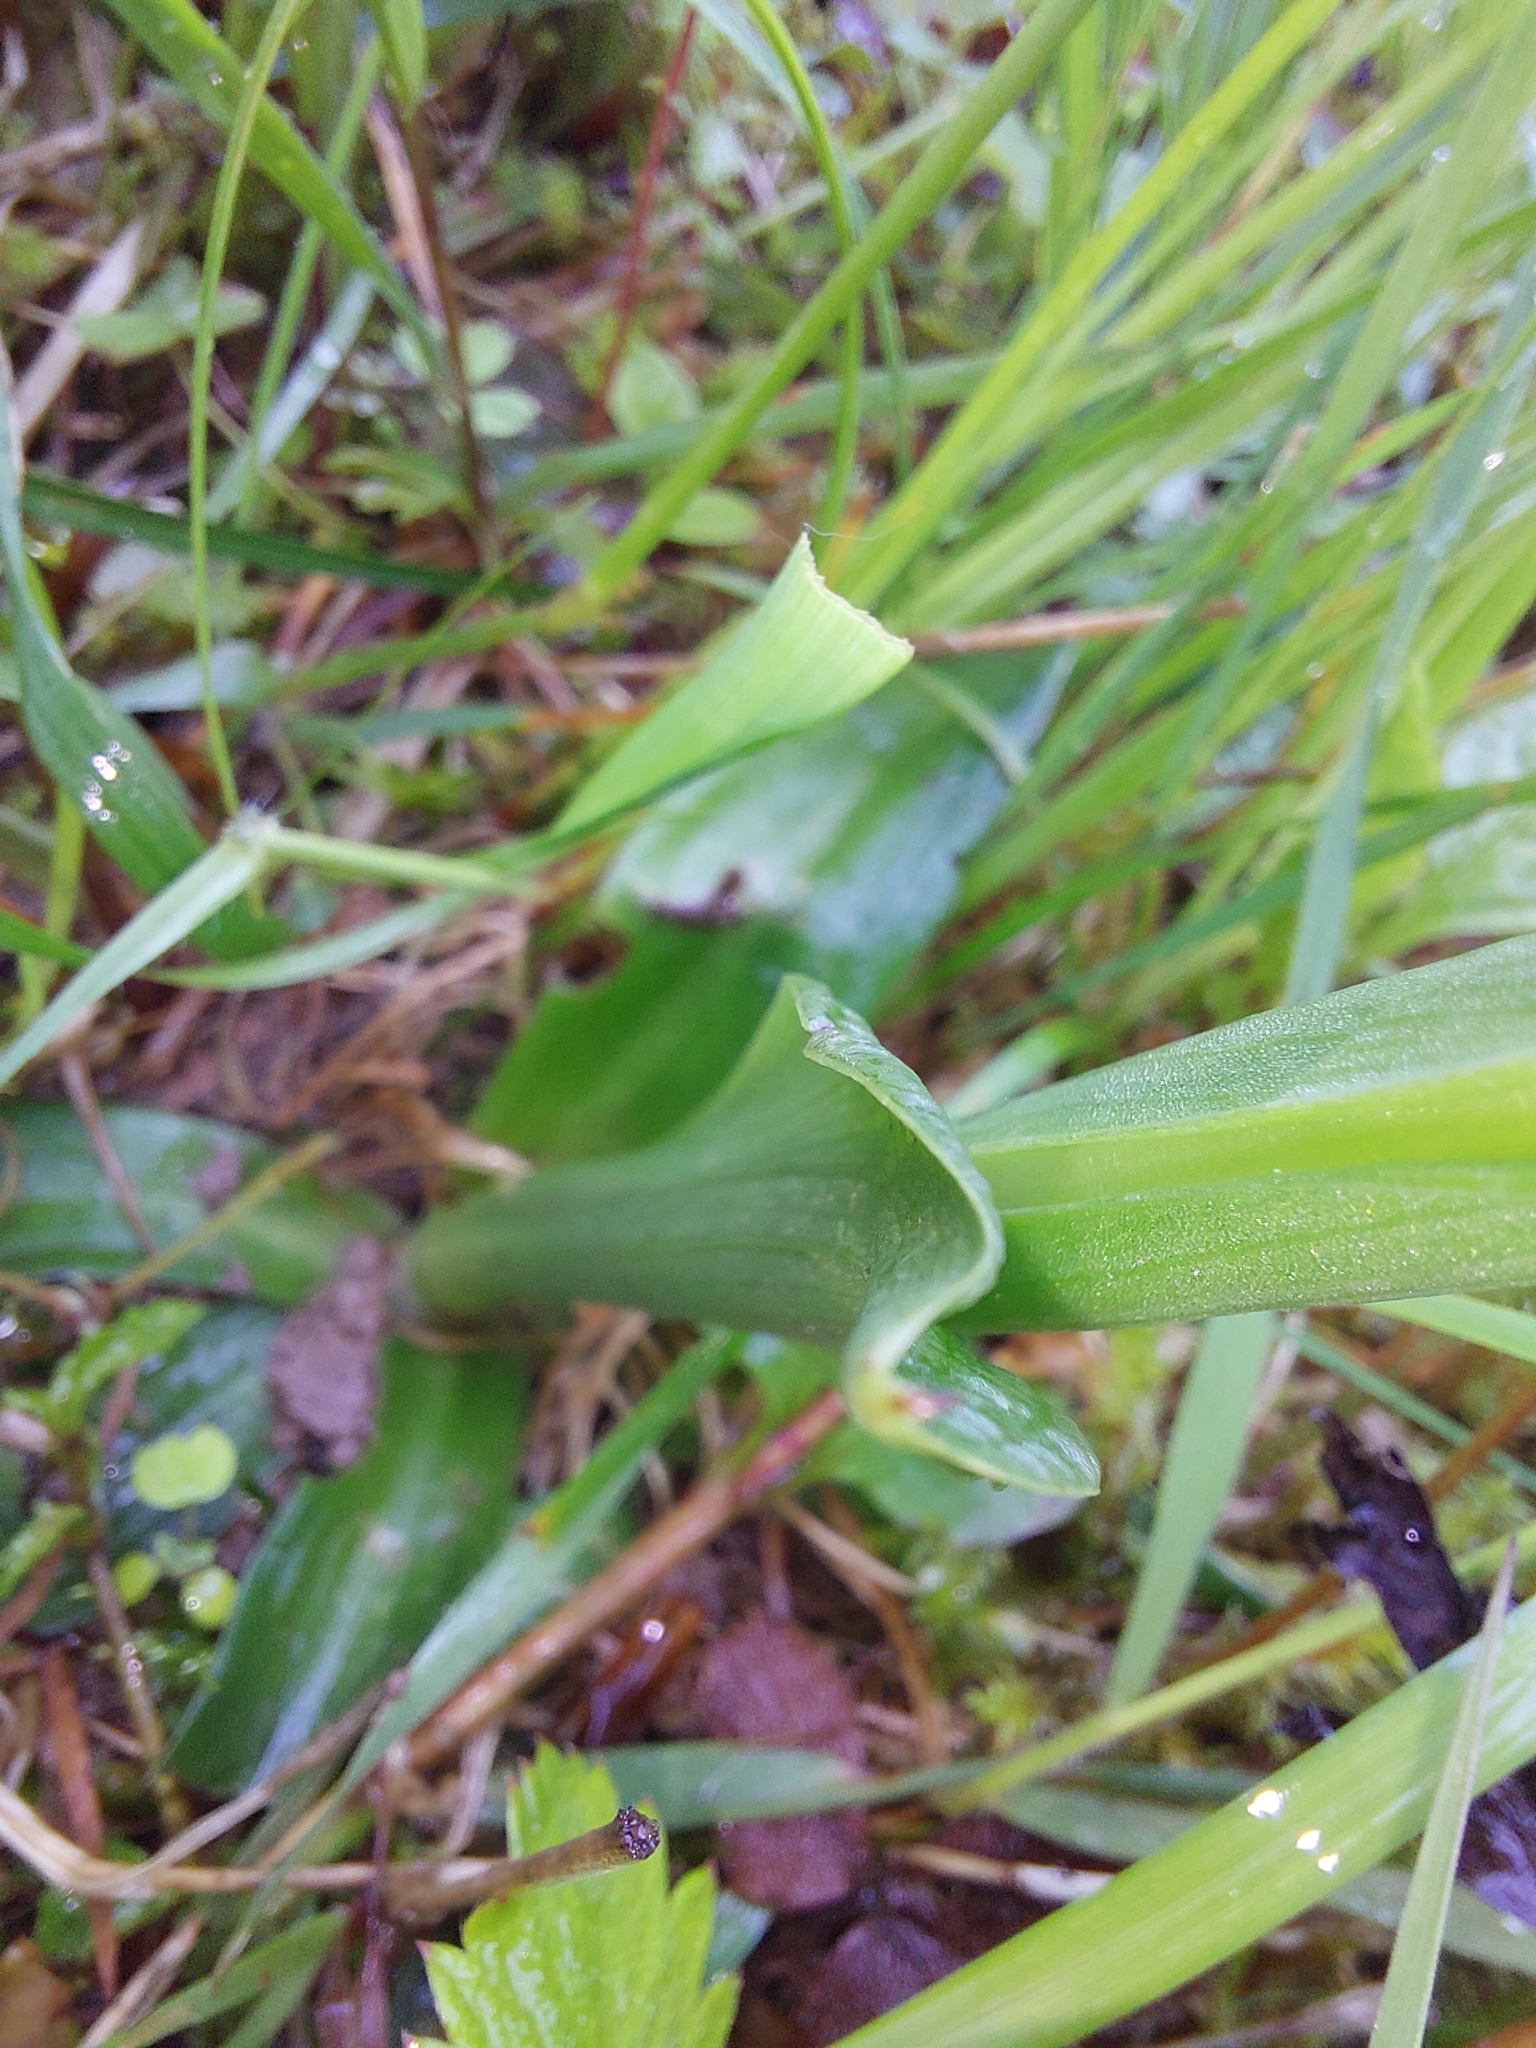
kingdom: Plantae
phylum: Tracheophyta
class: Liliopsida
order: Asparagales
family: Orchidaceae
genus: Anacamptis
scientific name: Anacamptis morio
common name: Green-winged orchid
